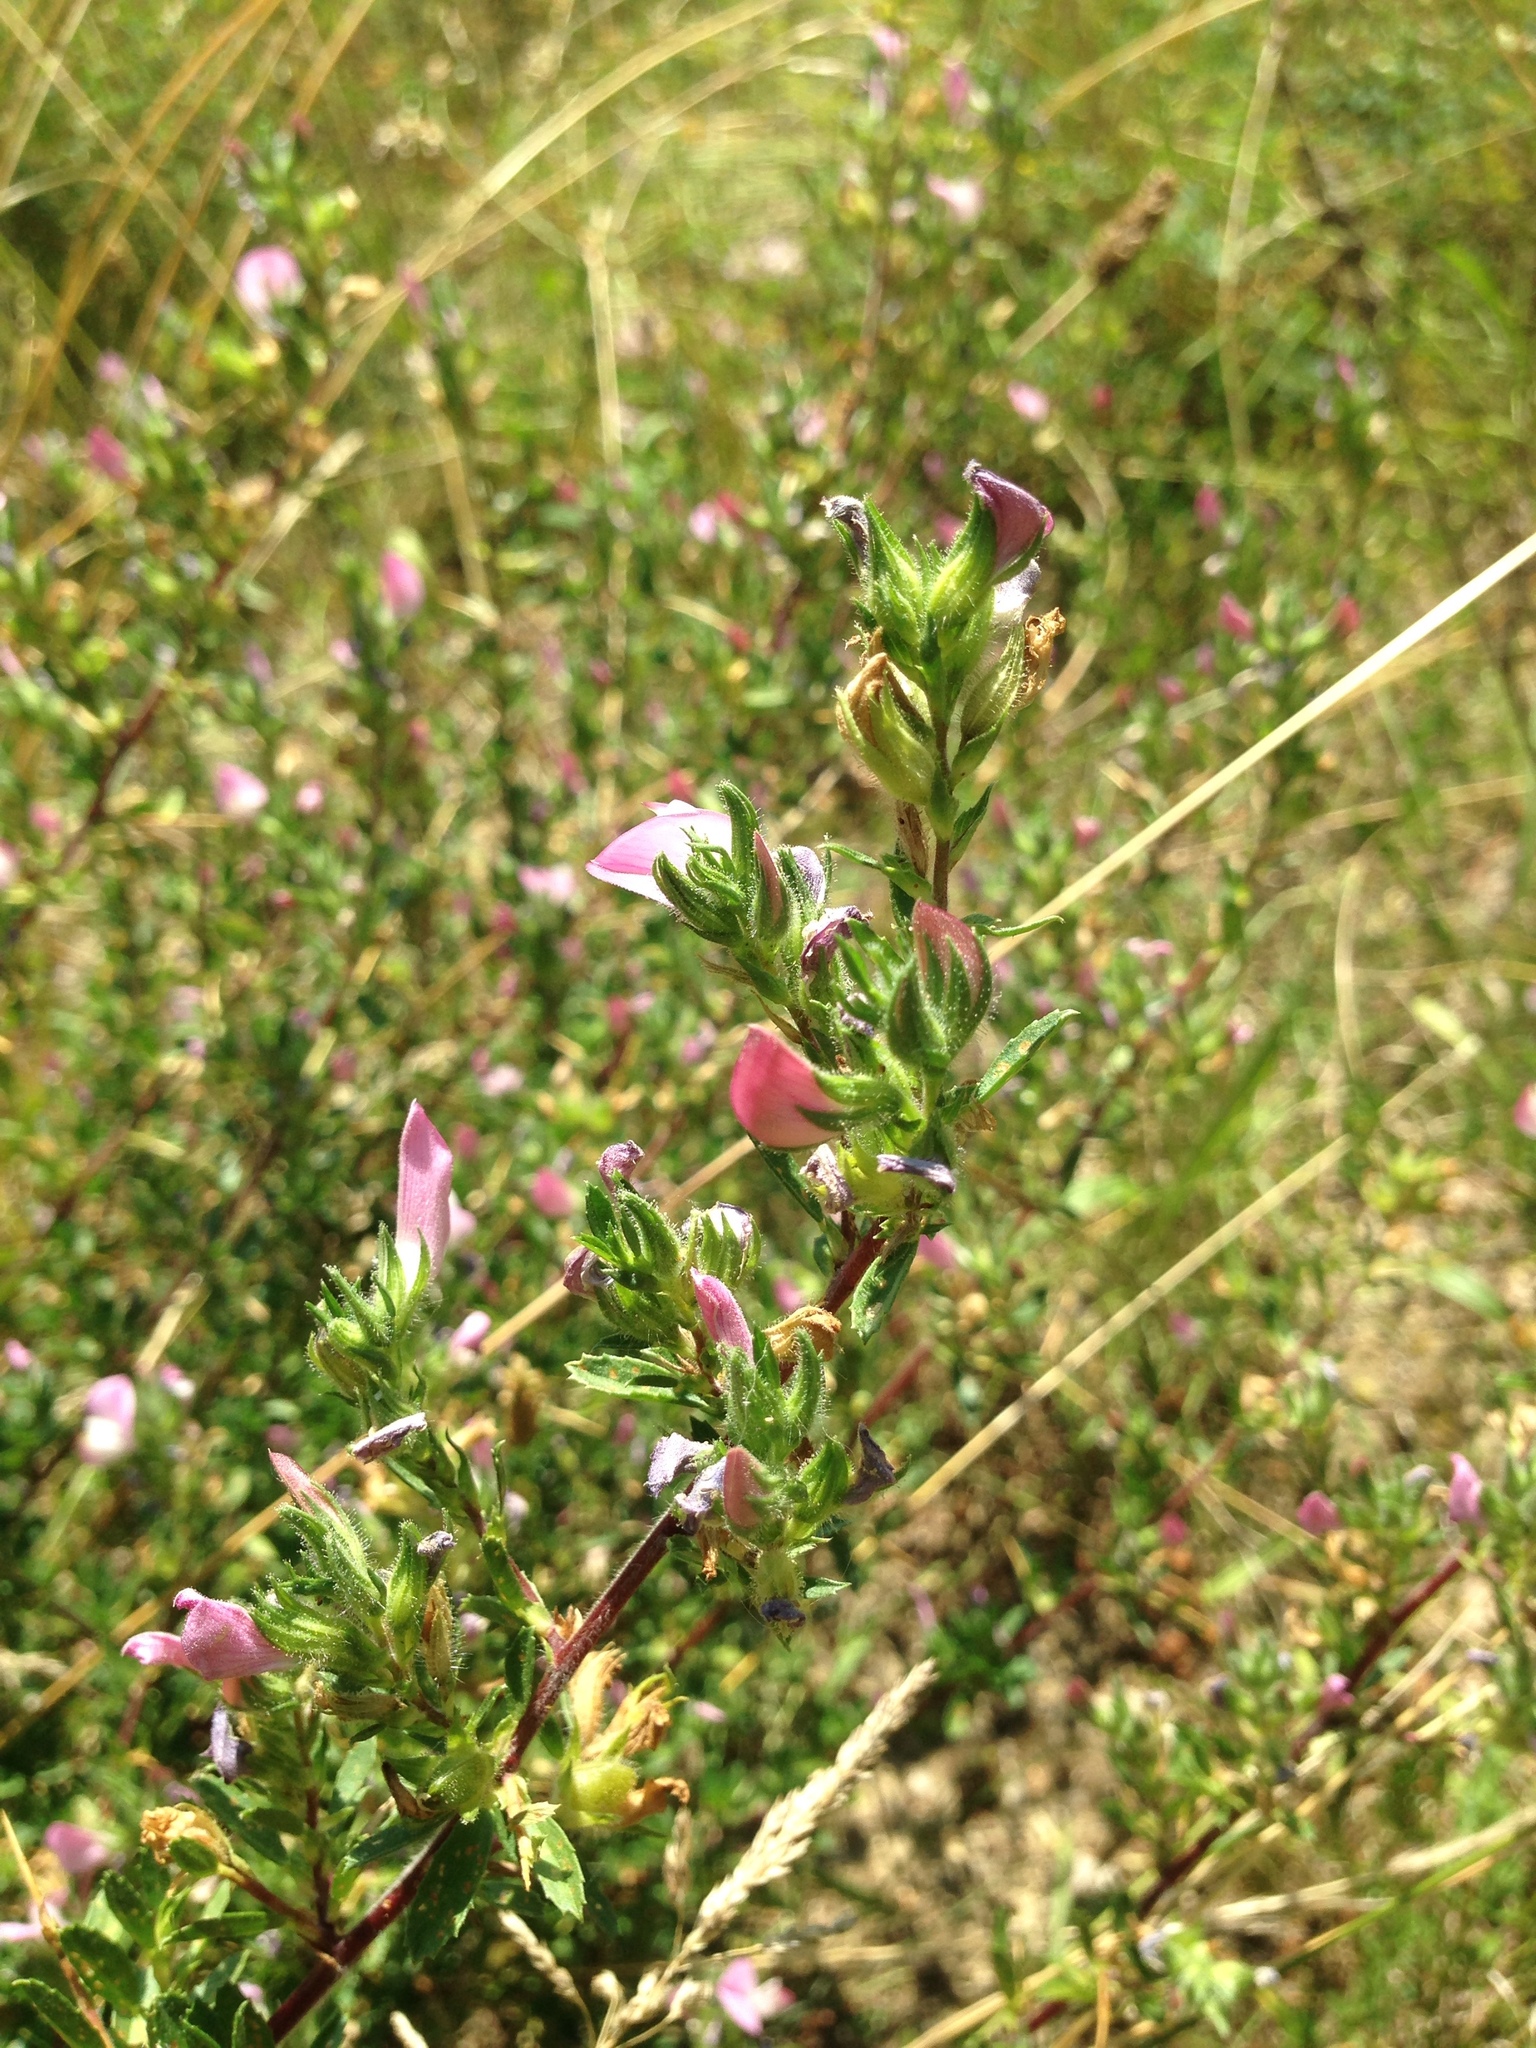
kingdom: Plantae
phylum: Tracheophyta
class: Magnoliopsida
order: Fabales
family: Fabaceae
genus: Ononis
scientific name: Ononis spinosa
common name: Spiny restharrow
